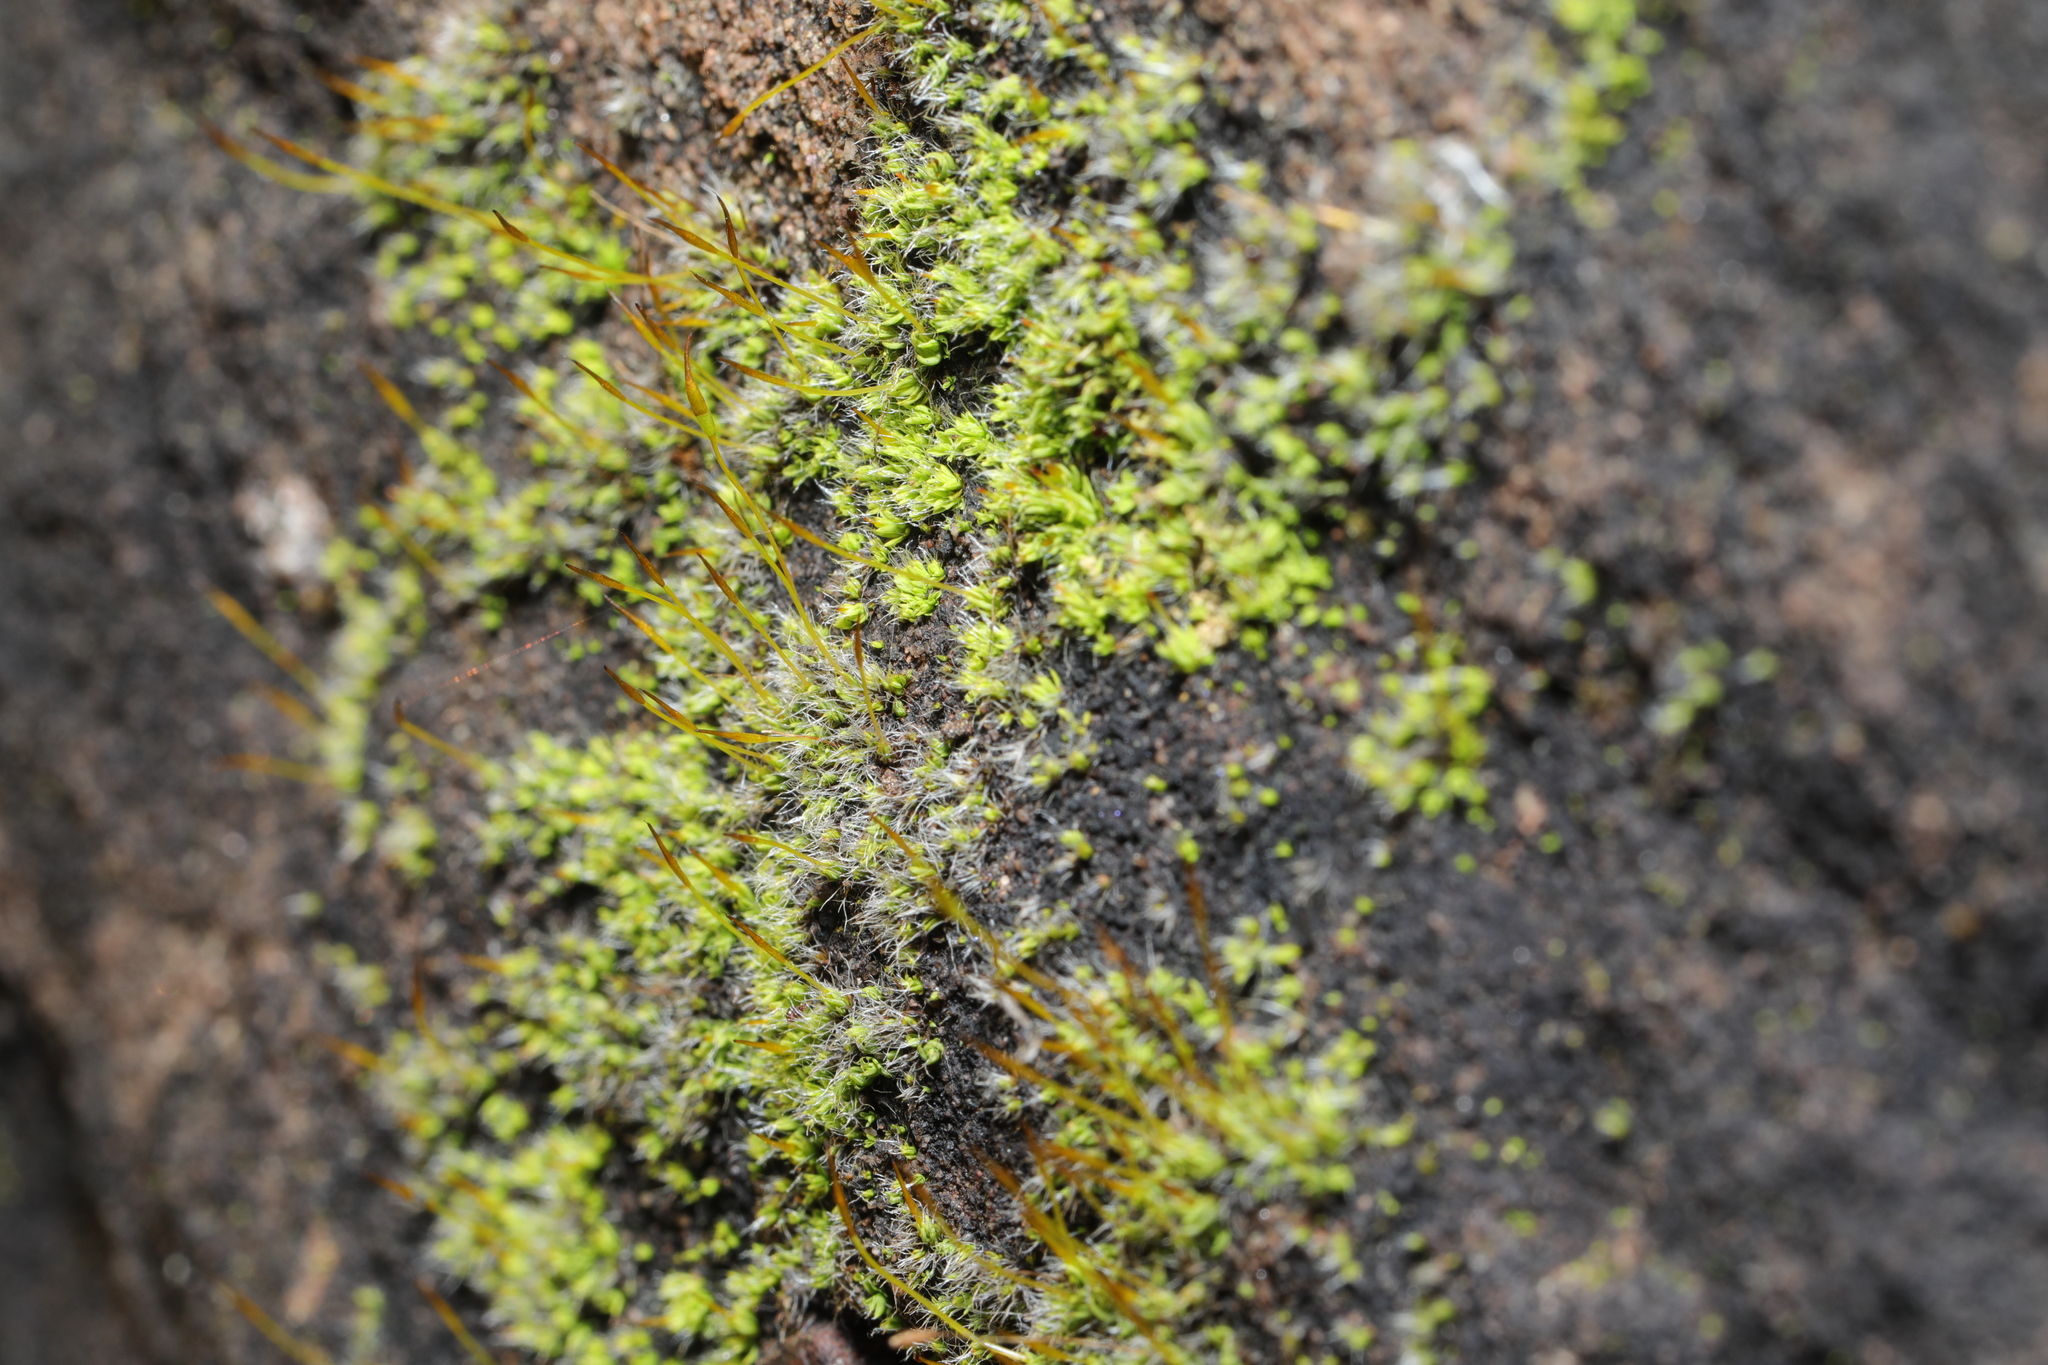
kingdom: Plantae
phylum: Bryophyta
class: Bryopsida
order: Pottiales
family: Pottiaceae
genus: Tortula
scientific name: Tortula muralis
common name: Wall screw-moss
